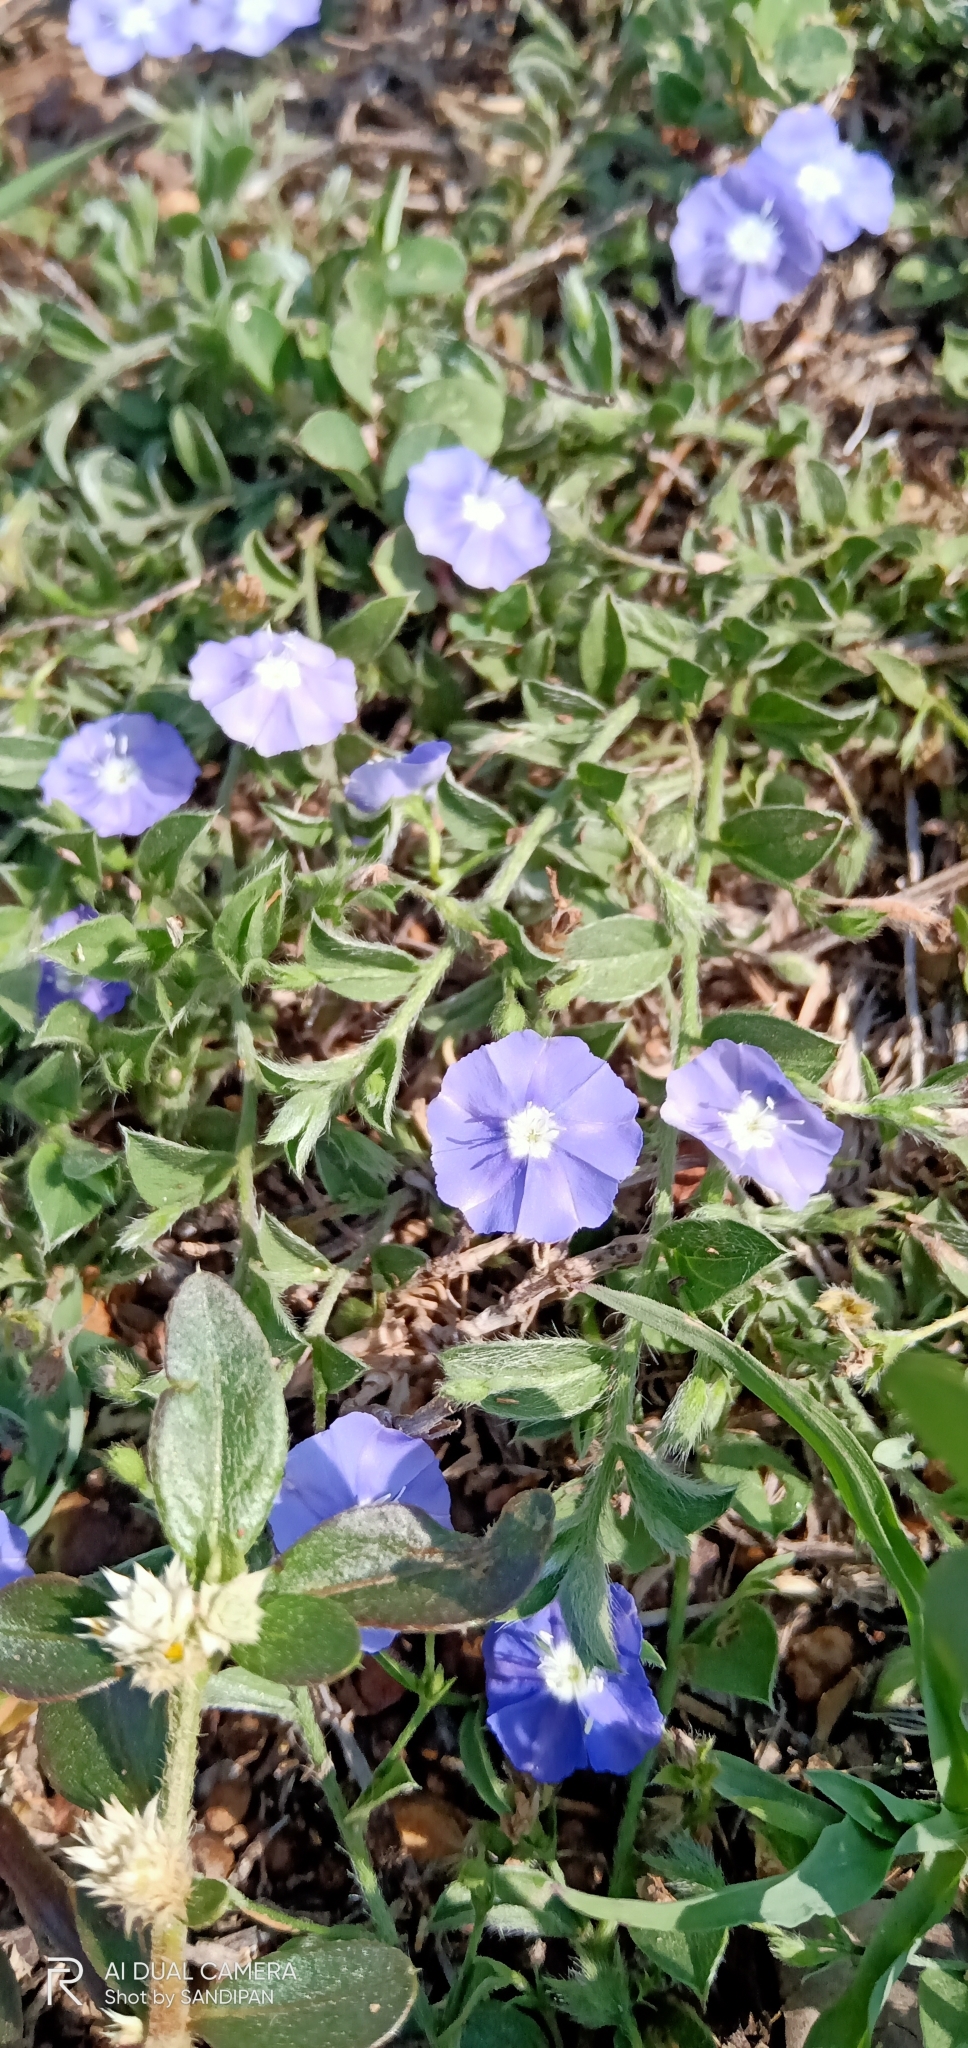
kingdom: Plantae
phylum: Tracheophyta
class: Magnoliopsida
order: Solanales
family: Convolvulaceae
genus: Evolvulus
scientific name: Evolvulus alsinoides
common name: Slender dwarf morning-glory
